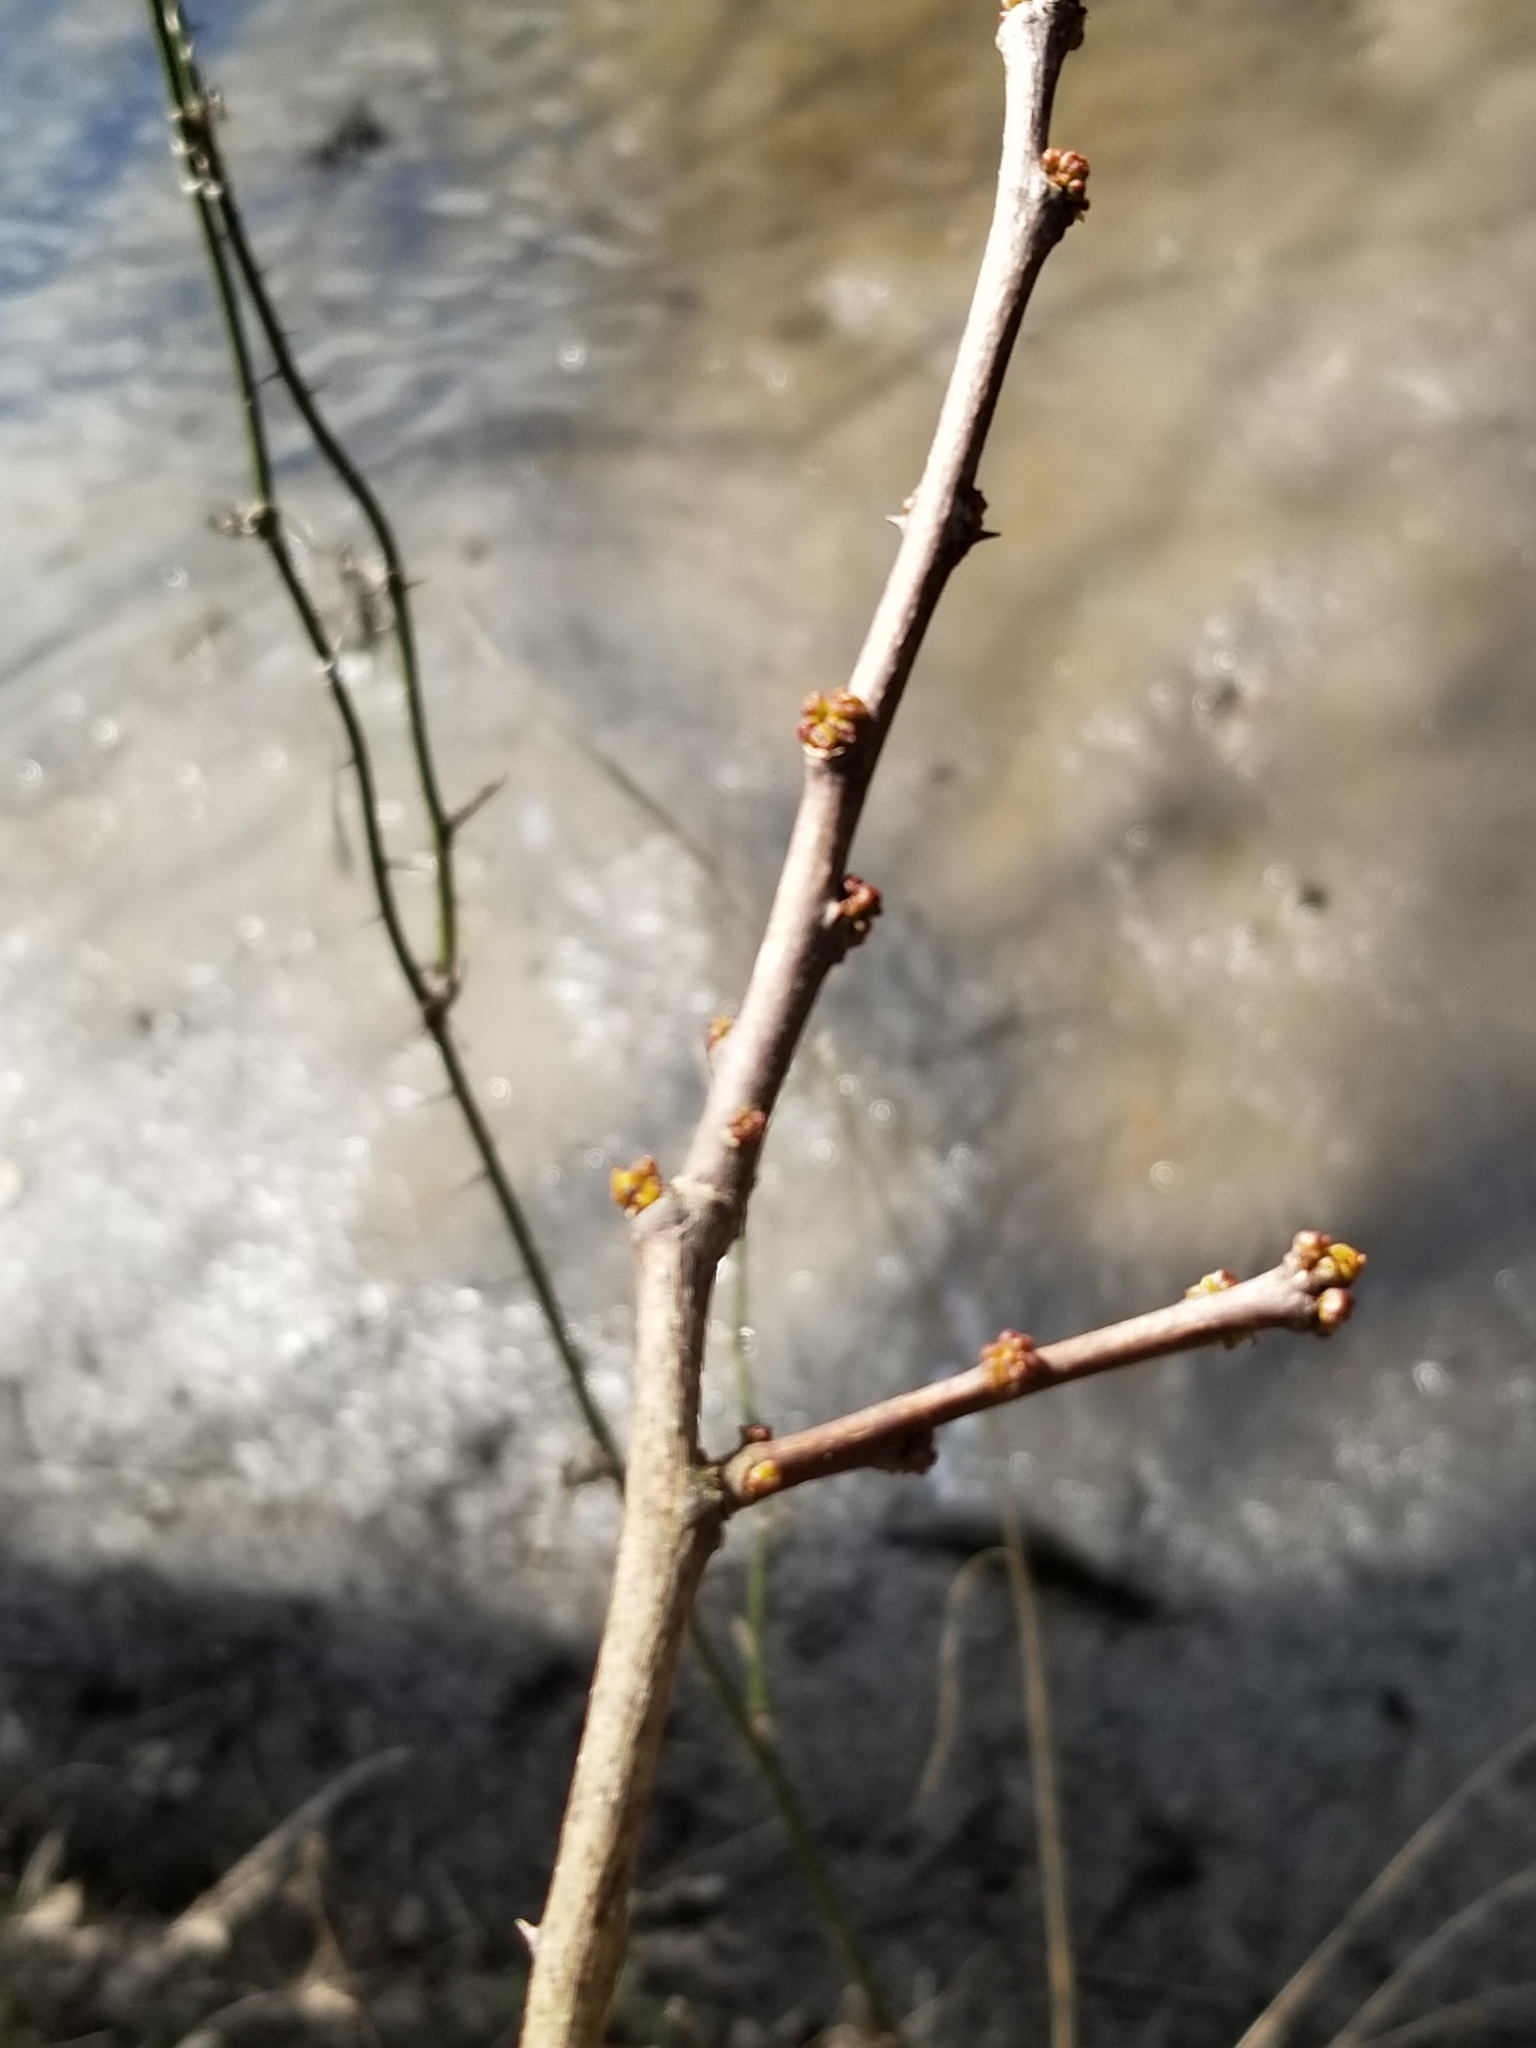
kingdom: Plantae
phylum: Tracheophyta
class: Magnoliopsida
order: Sapindales
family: Rutaceae
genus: Zanthoxylum
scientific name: Zanthoxylum americanum
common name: Northern prickly-ash
